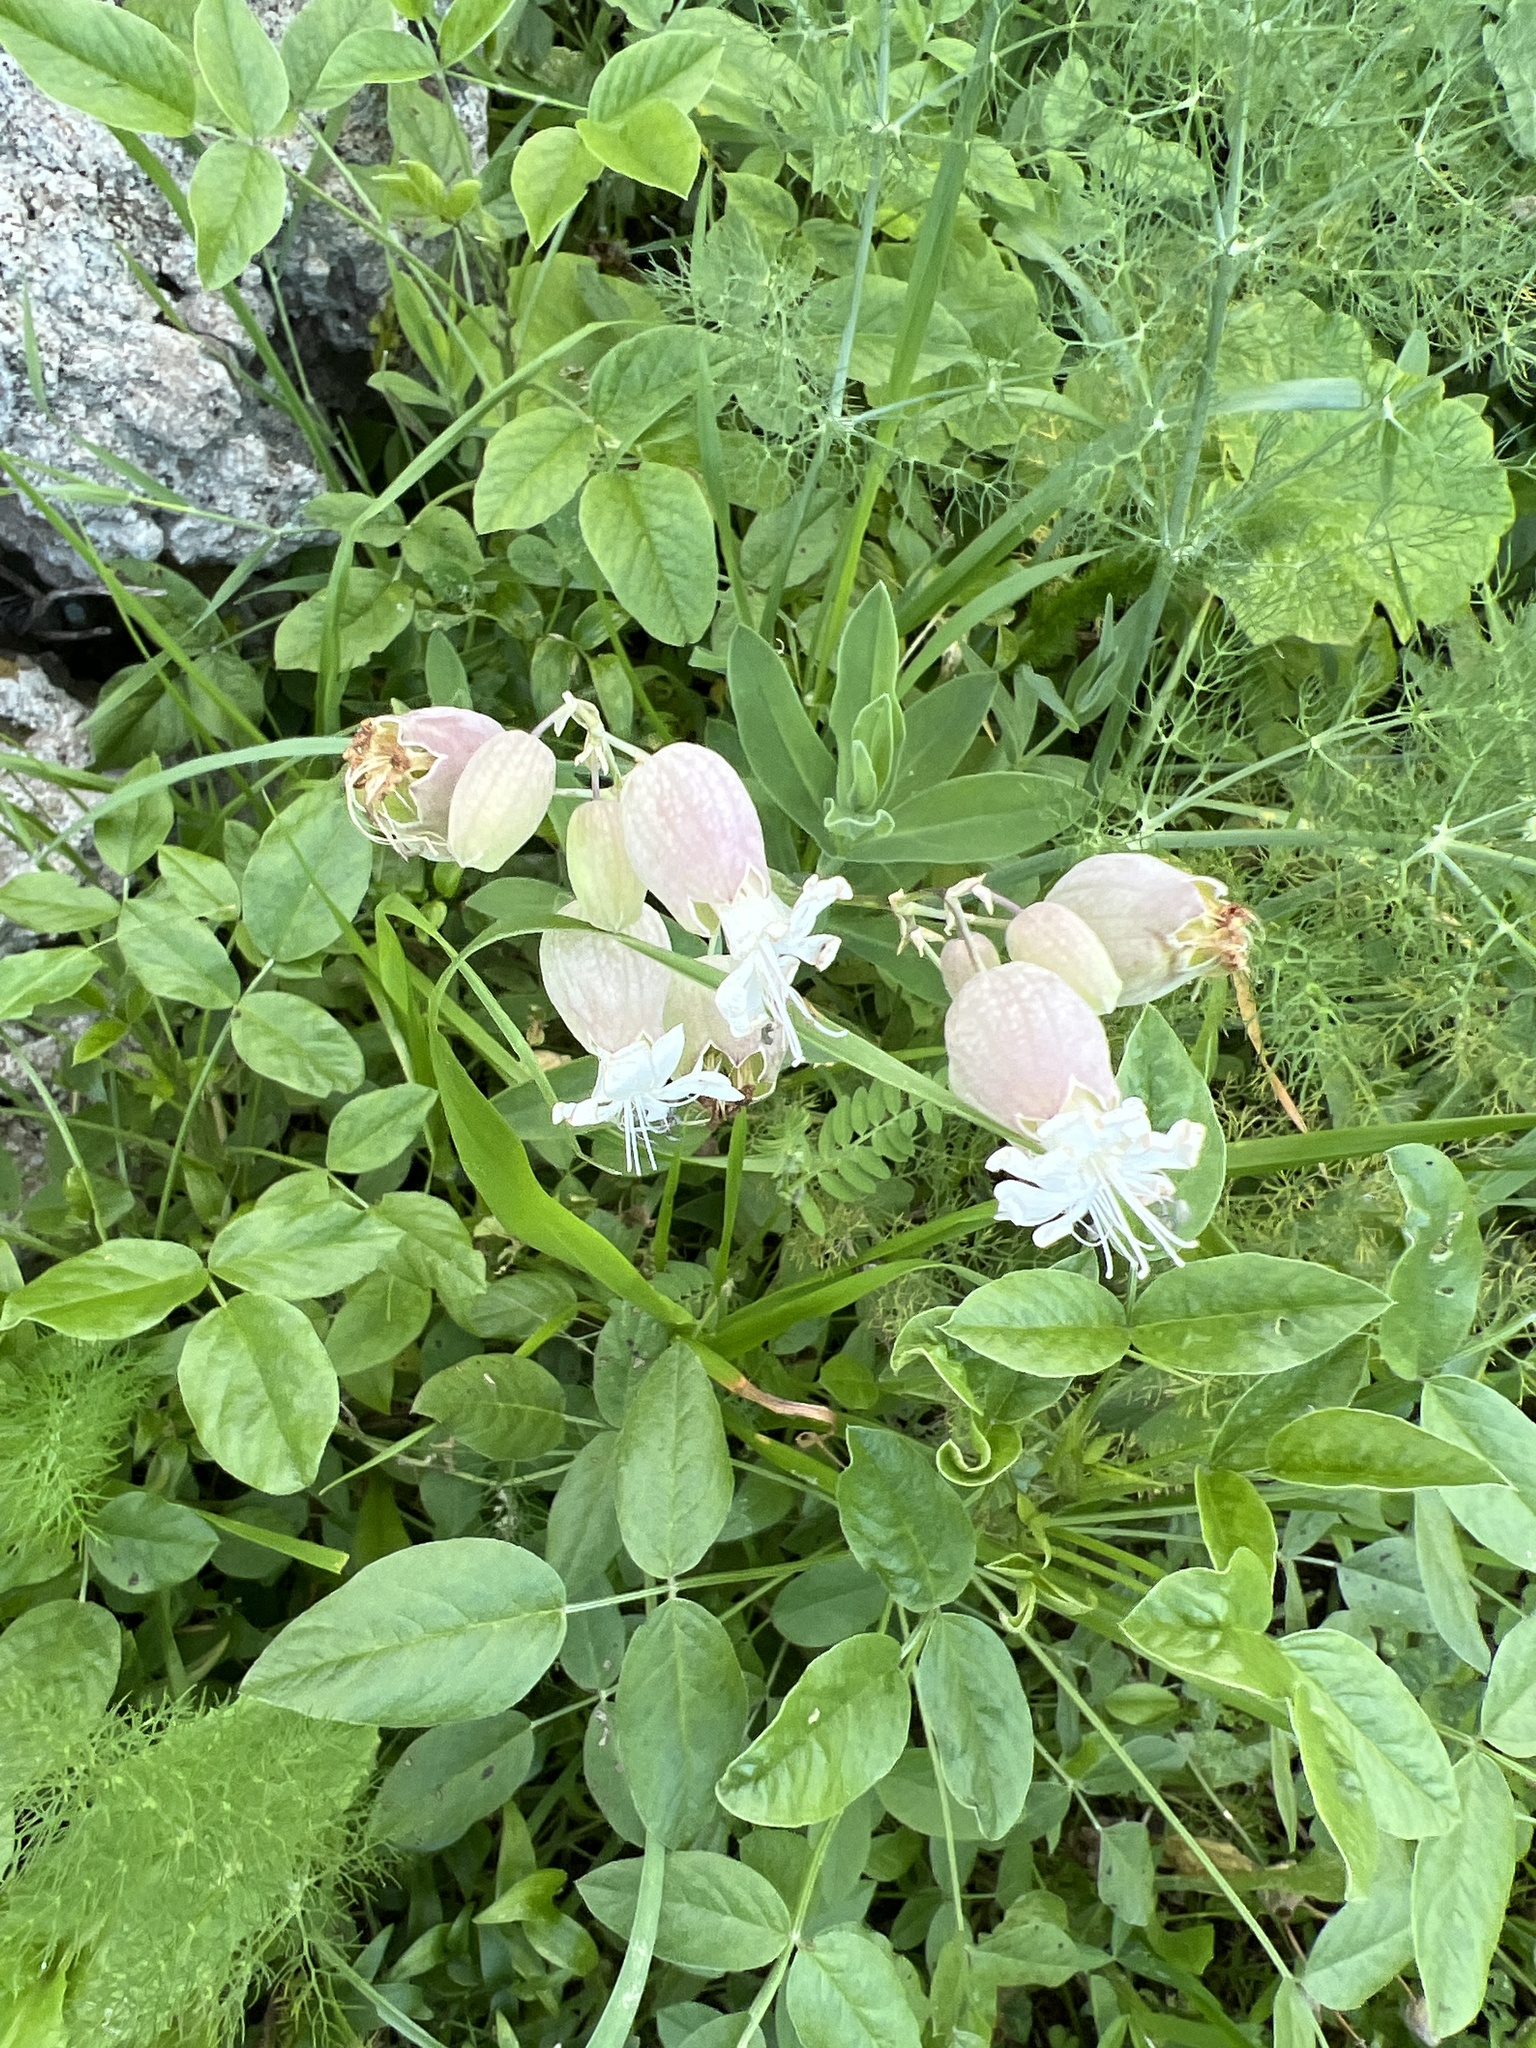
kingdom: Plantae
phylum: Tracheophyta
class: Magnoliopsida
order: Caryophyllales
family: Caryophyllaceae
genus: Silene
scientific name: Silene vulgaris
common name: Bladder campion
